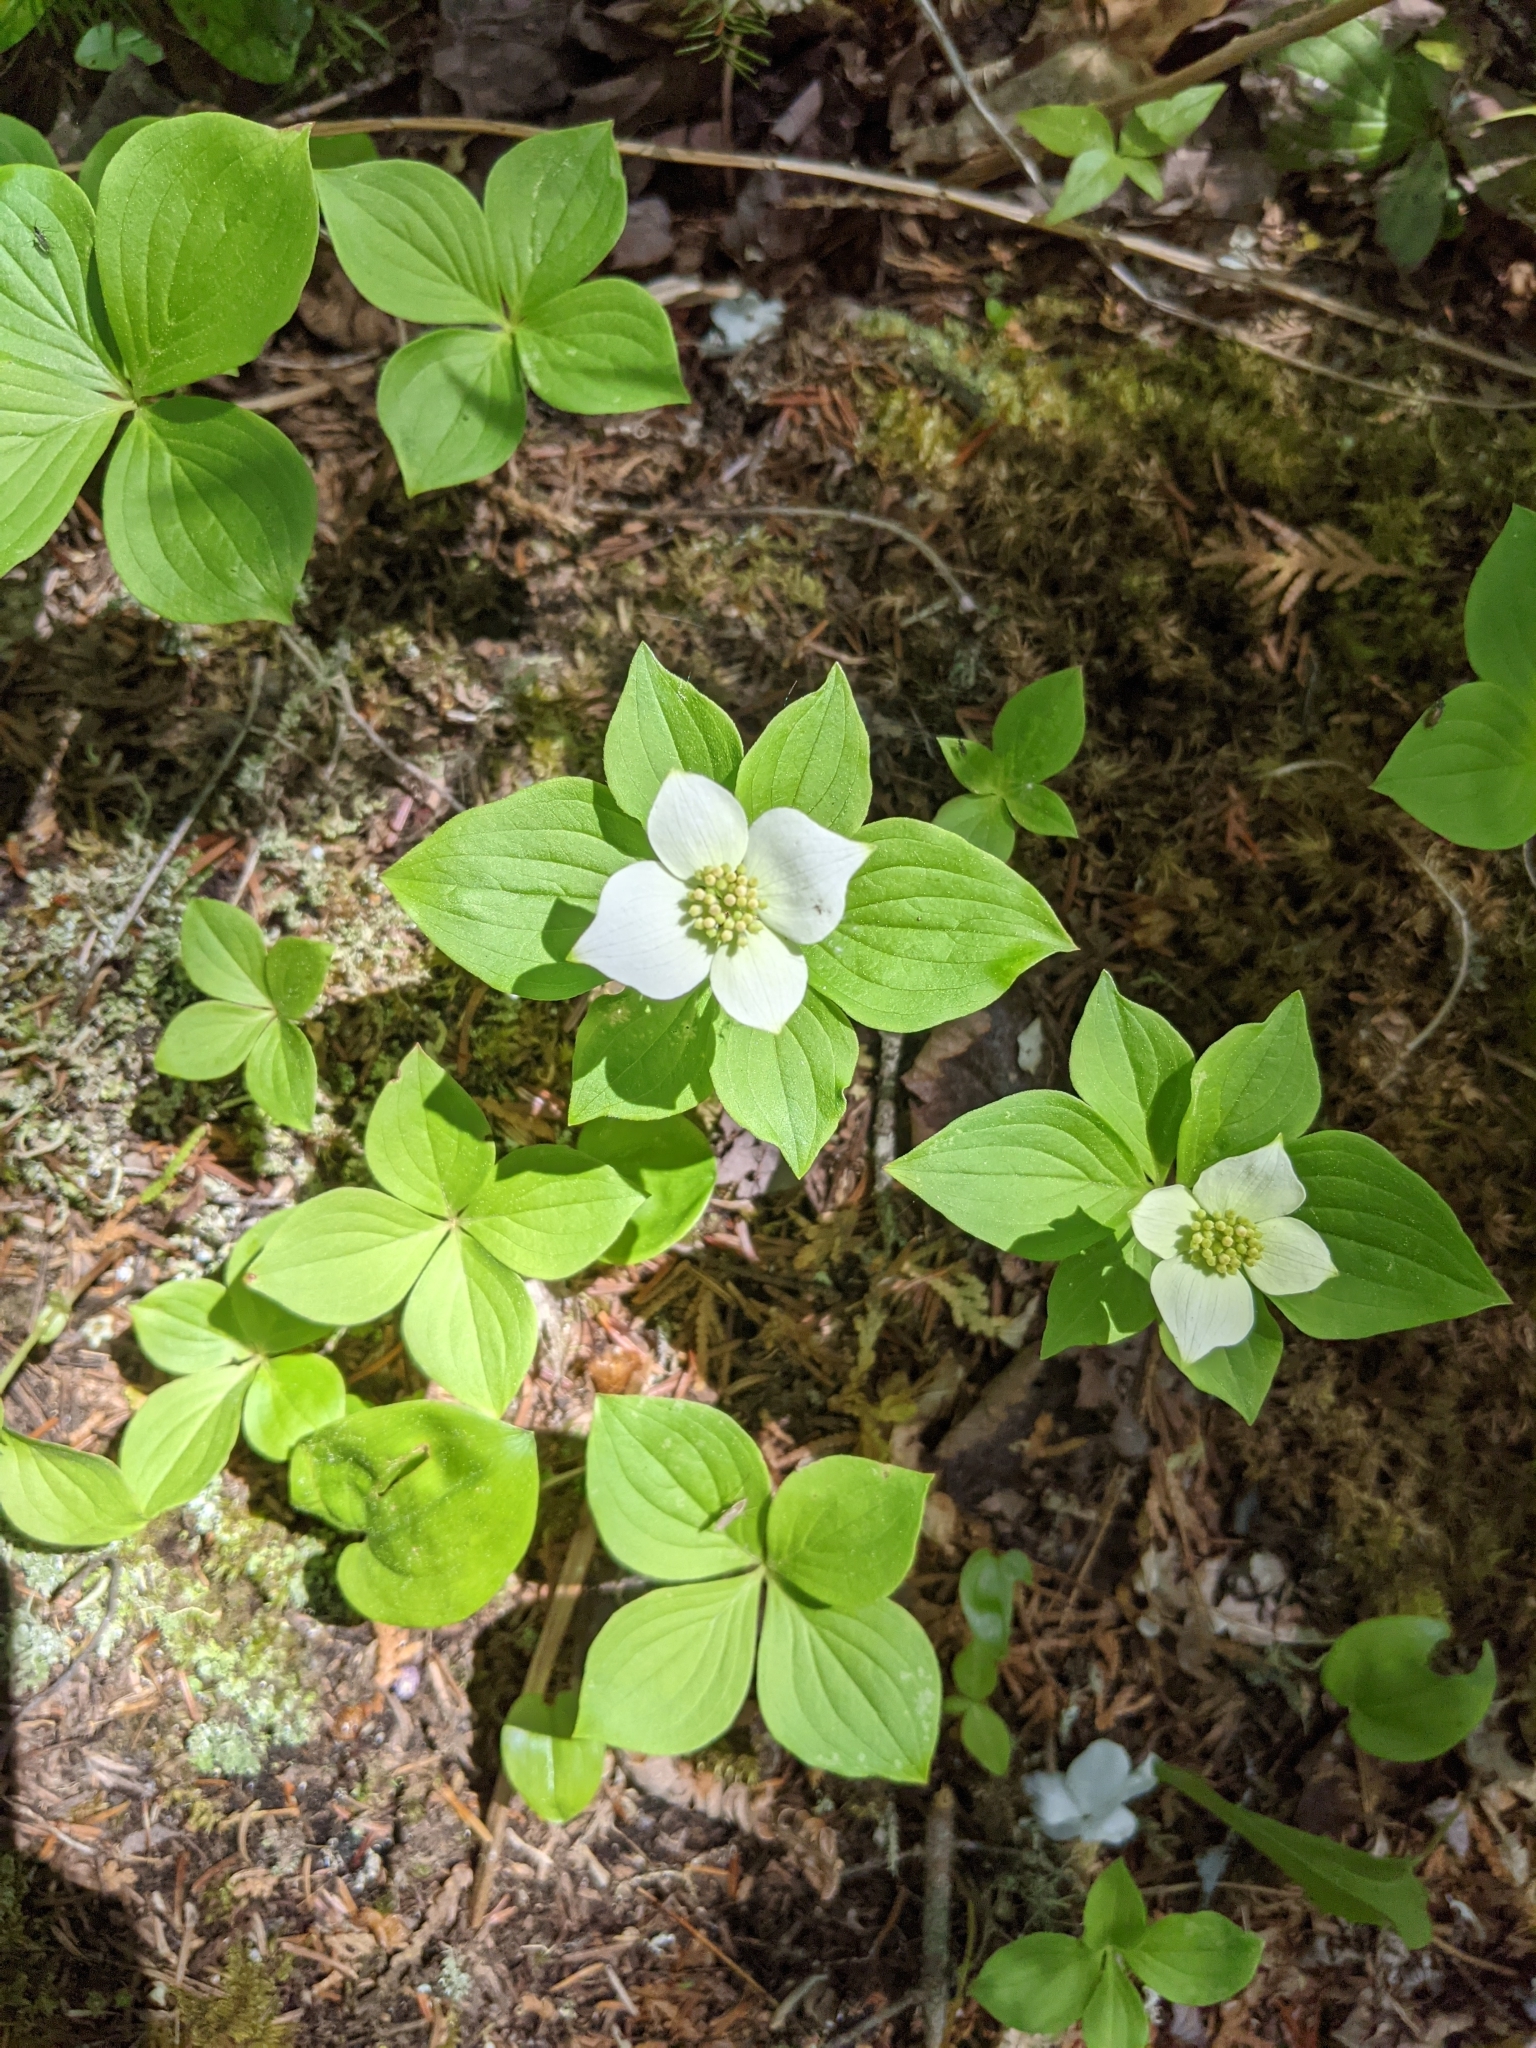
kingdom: Plantae
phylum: Tracheophyta
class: Magnoliopsida
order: Cornales
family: Cornaceae
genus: Cornus
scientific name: Cornus canadensis
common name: Creeping dogwood
